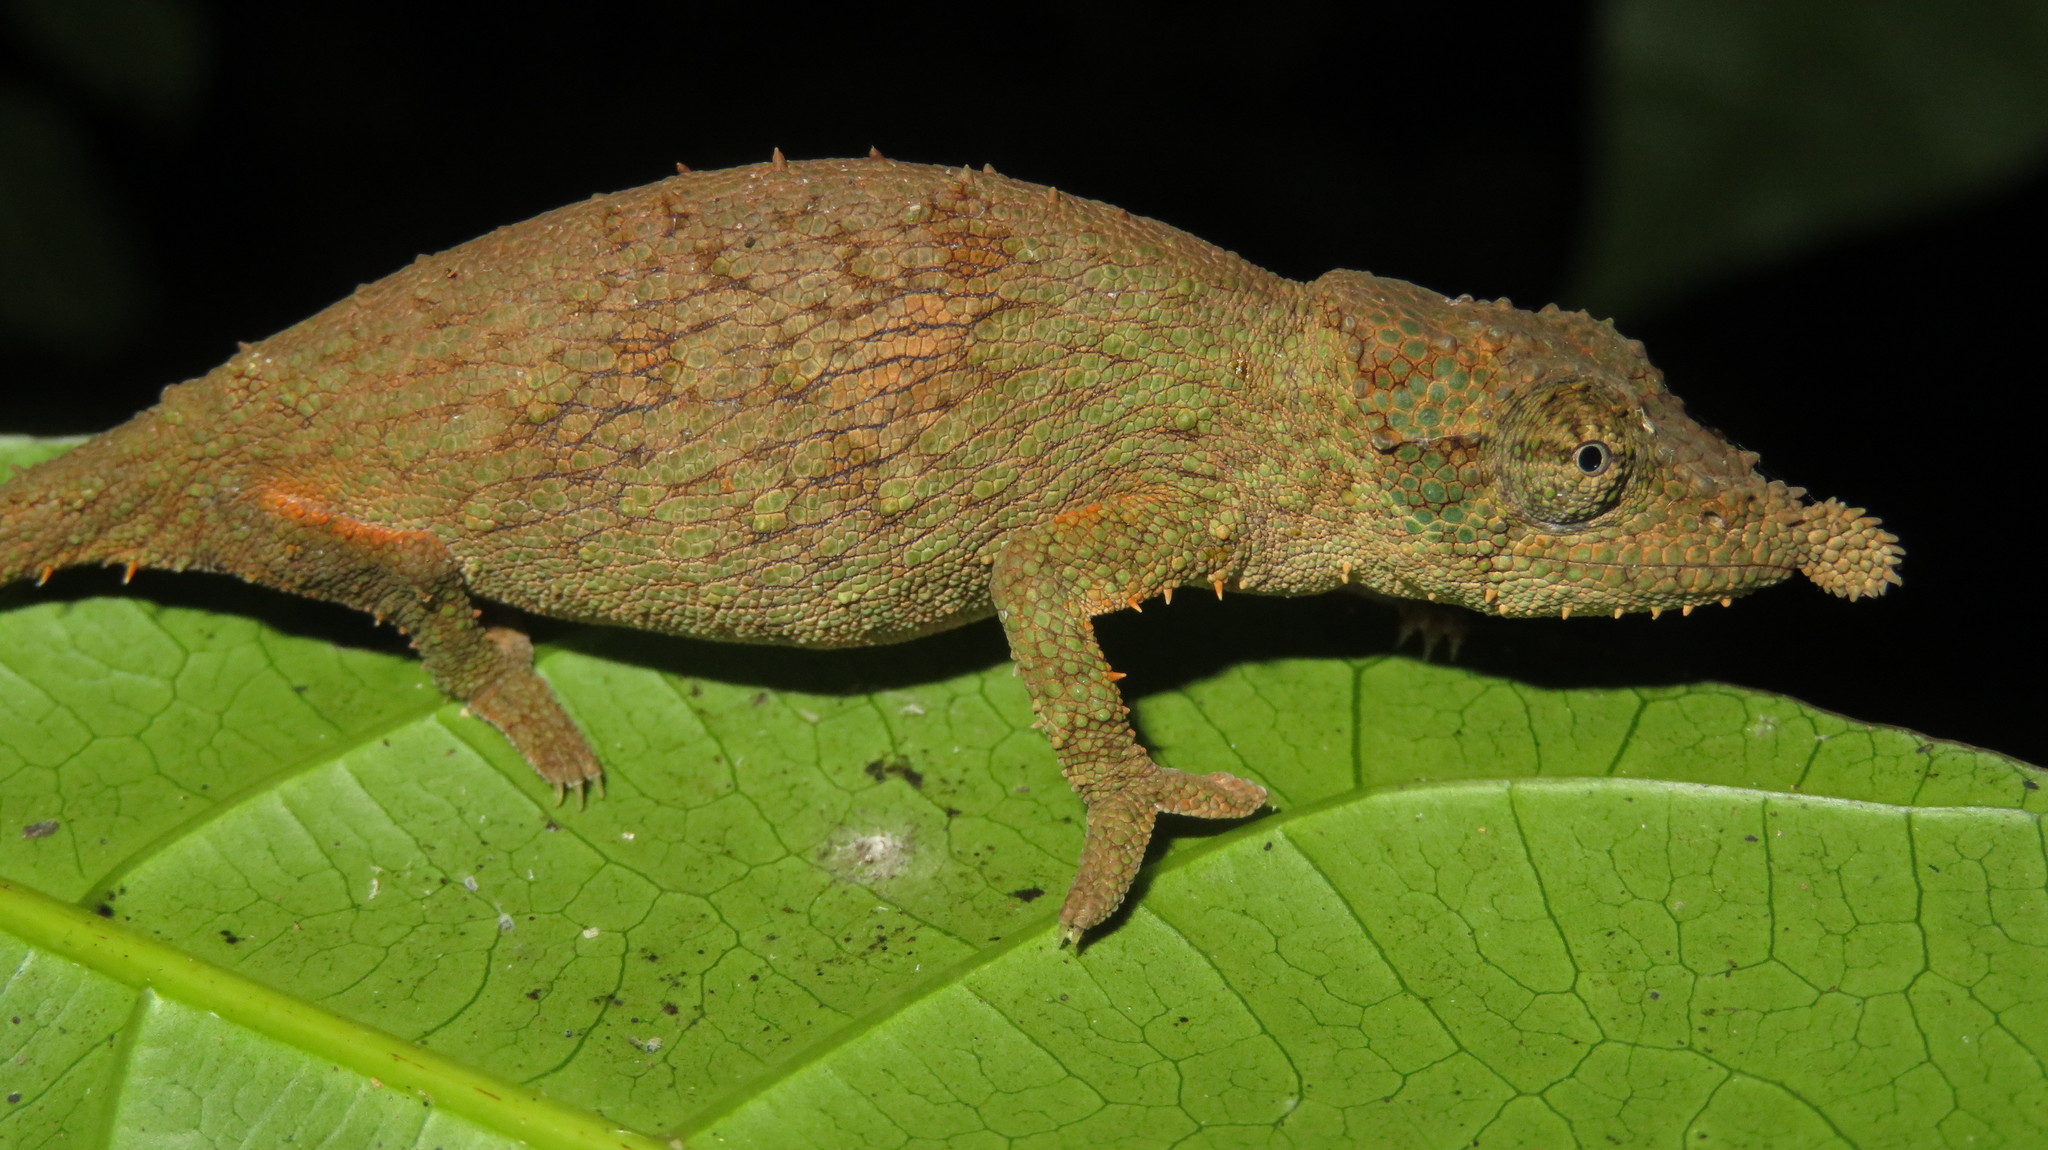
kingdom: Animalia
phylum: Chordata
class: Squamata
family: Chamaeleonidae
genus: Rhampholeon
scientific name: Rhampholeon spinosus
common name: Rosette-nosed pygmy chameleon
